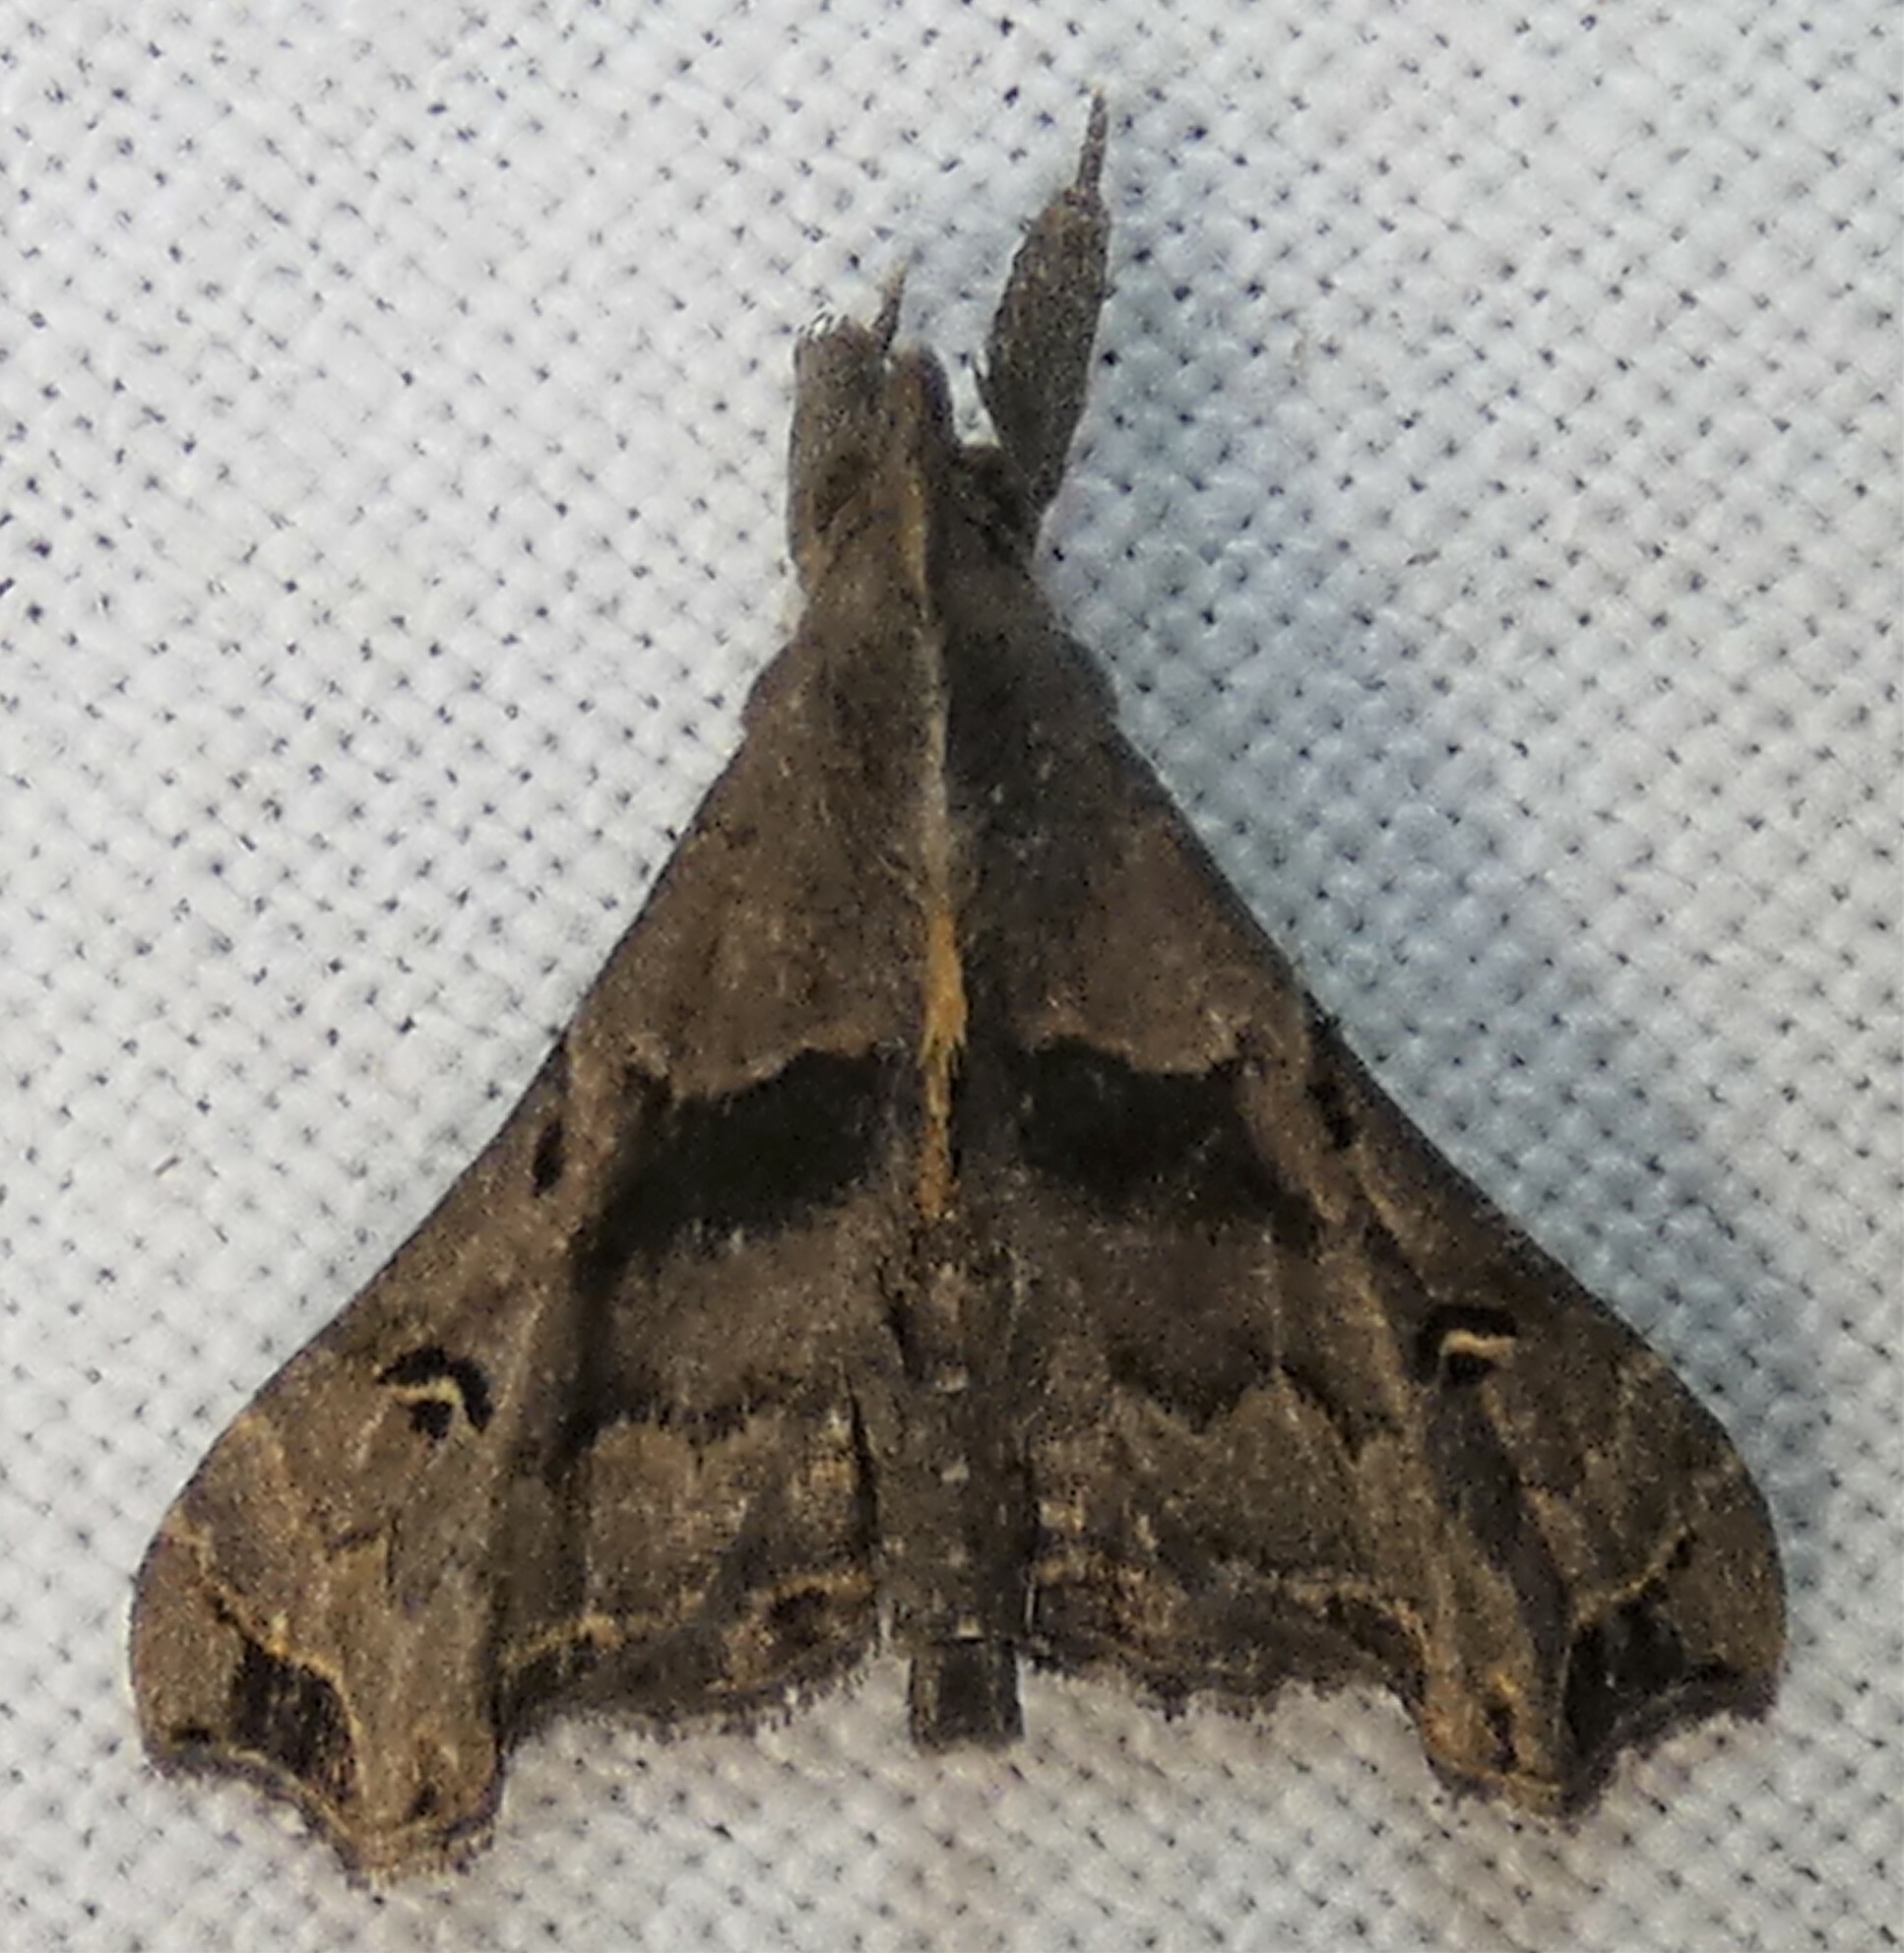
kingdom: Animalia
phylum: Arthropoda
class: Insecta
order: Lepidoptera
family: Erebidae
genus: Palthis
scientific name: Palthis asopialis
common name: Faint-spotted palthis moth
